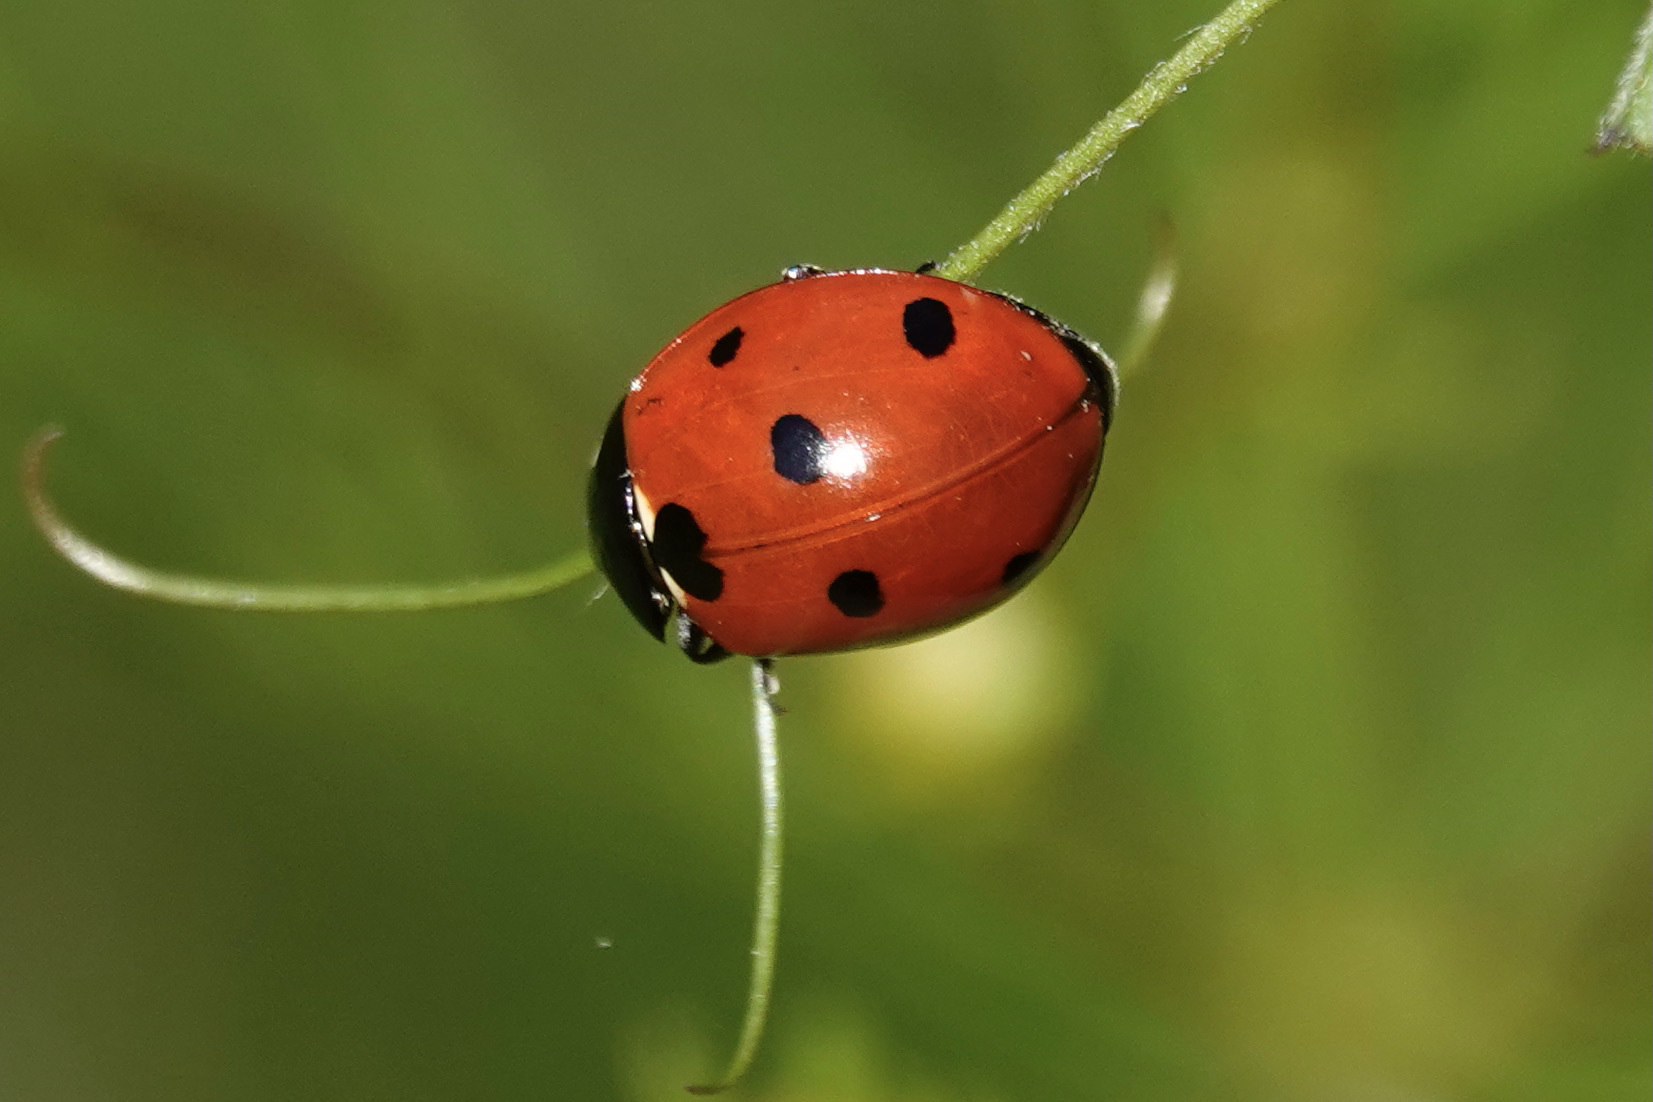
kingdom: Animalia
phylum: Arthropoda
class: Insecta
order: Coleoptera
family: Coccinellidae
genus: Coccinella
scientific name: Coccinella septempunctata
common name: Sevenspotted lady beetle
